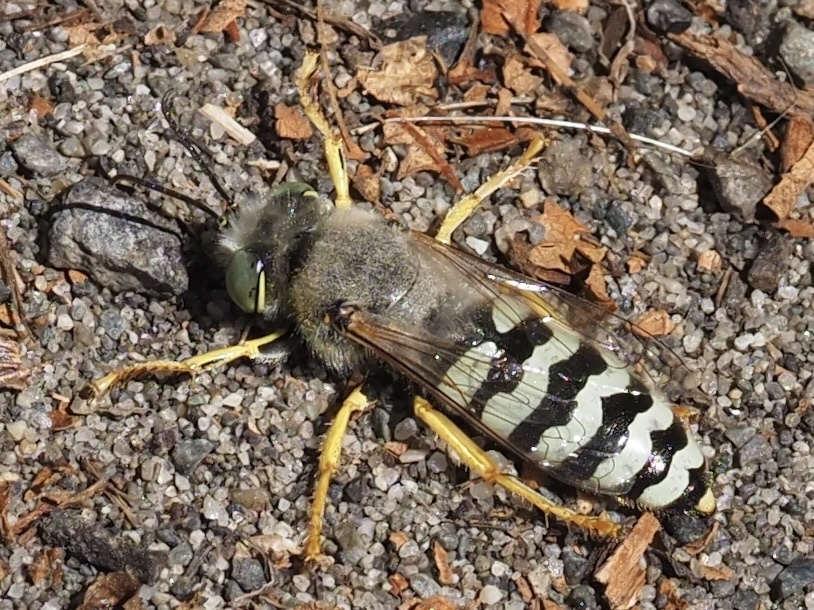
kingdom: Animalia
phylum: Arthropoda
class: Insecta
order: Hymenoptera
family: Crabronidae
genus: Bembix
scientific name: Bembix americana
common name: American sand wasp
